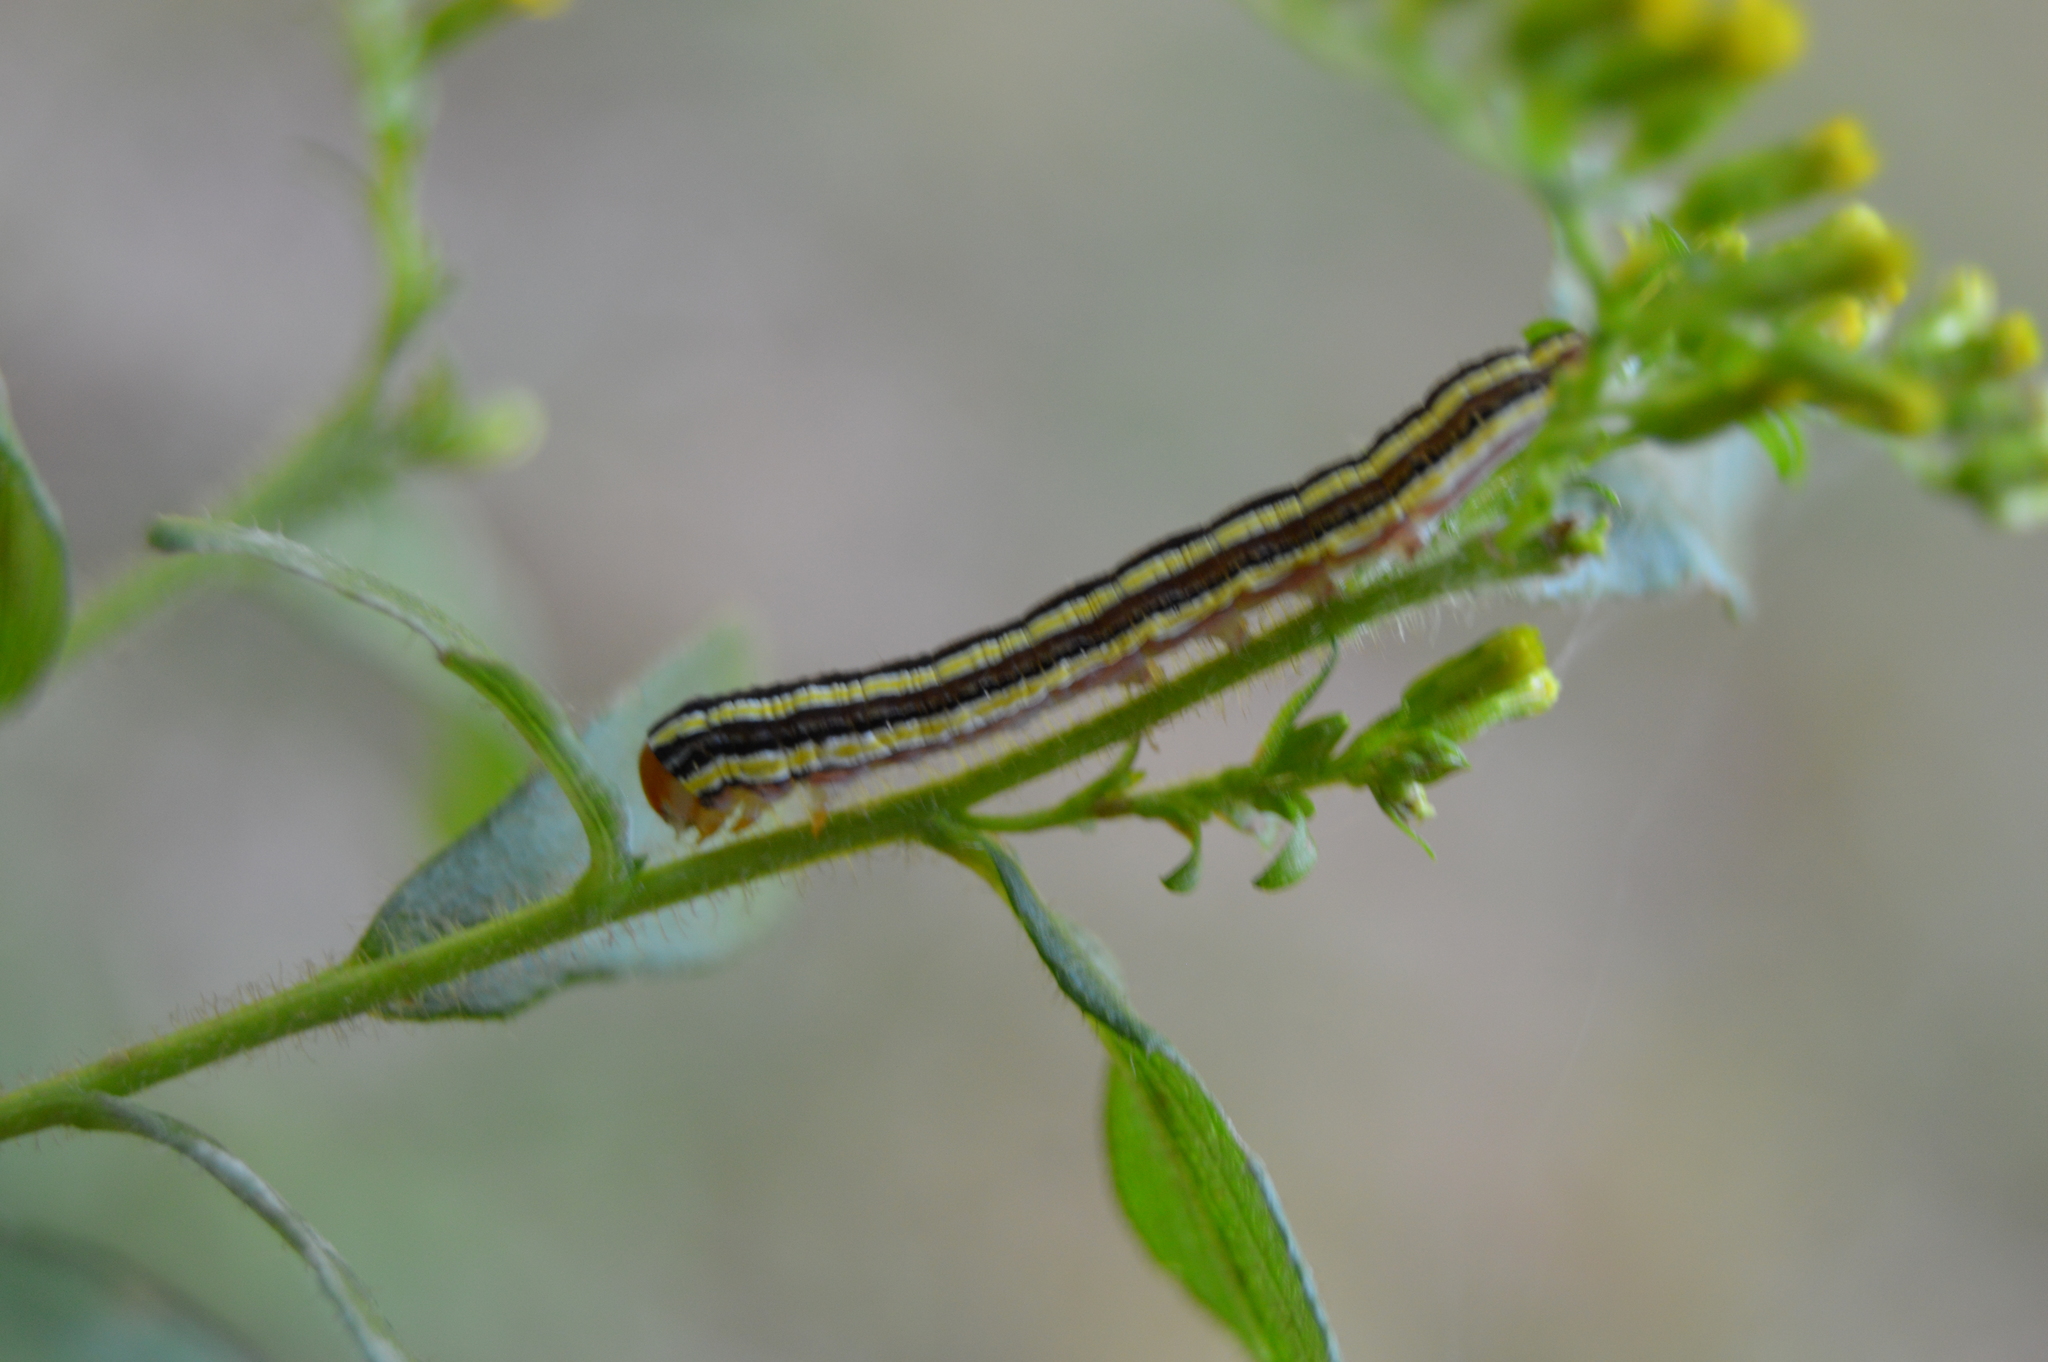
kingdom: Animalia
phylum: Arthropoda
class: Insecta
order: Lepidoptera
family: Noctuidae
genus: Trichordestra
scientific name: Trichordestra legitima
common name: Striped garden caterpillar
